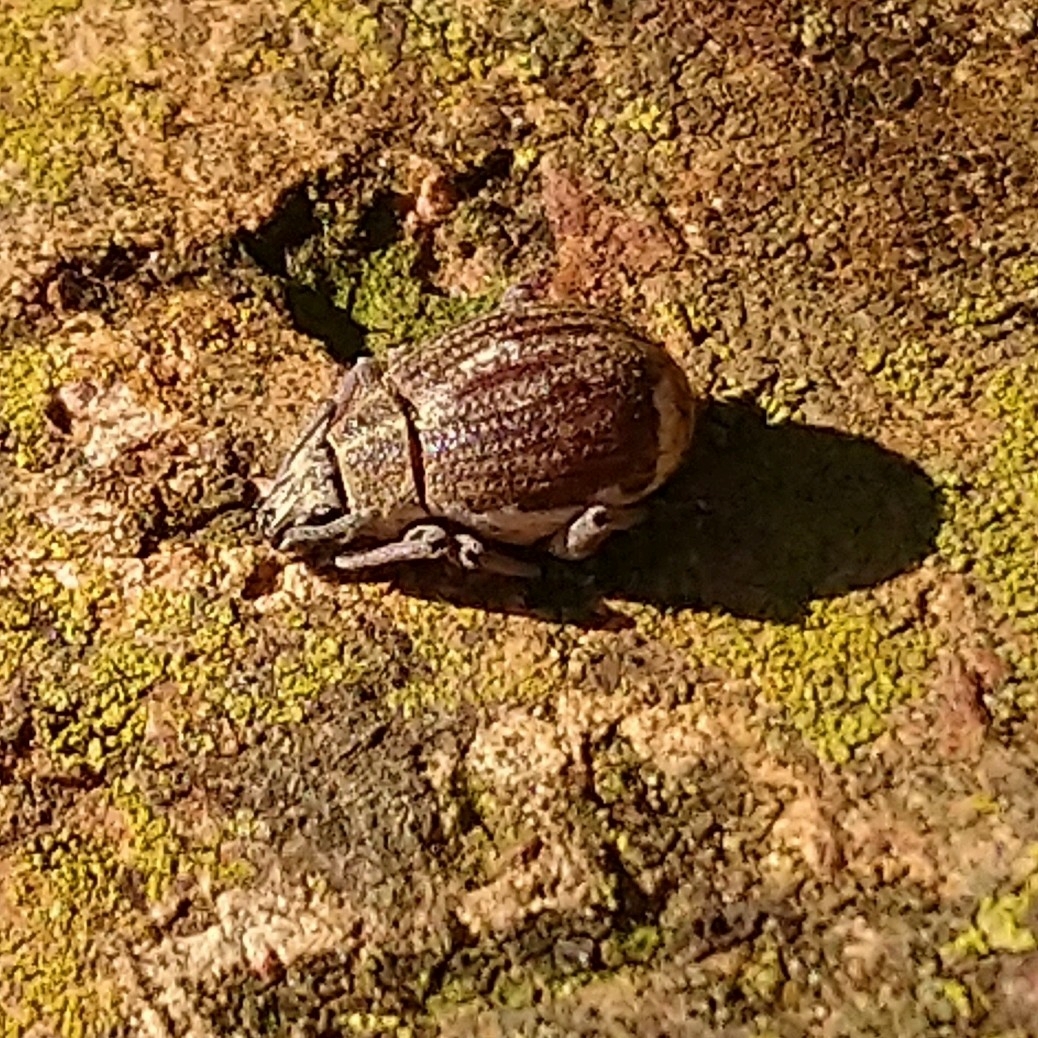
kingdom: Animalia
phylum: Arthropoda
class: Insecta
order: Coleoptera
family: Curculionidae
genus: Sciobius
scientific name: Sciobius pullus
